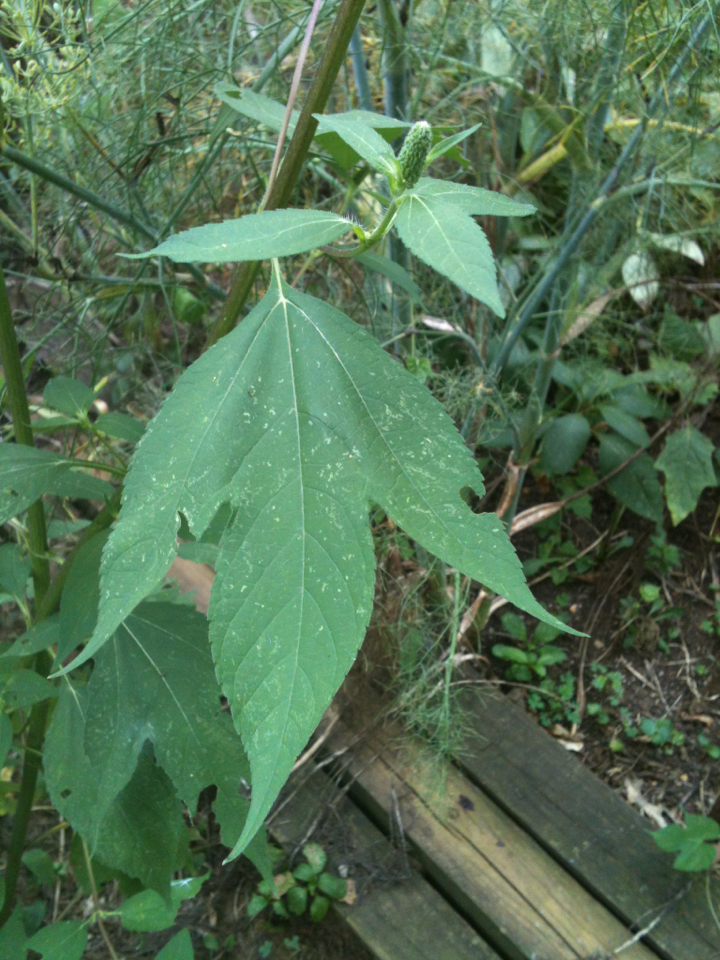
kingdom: Plantae
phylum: Tracheophyta
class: Magnoliopsida
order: Asterales
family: Asteraceae
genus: Ambrosia
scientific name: Ambrosia trifida
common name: Giant ragweed
